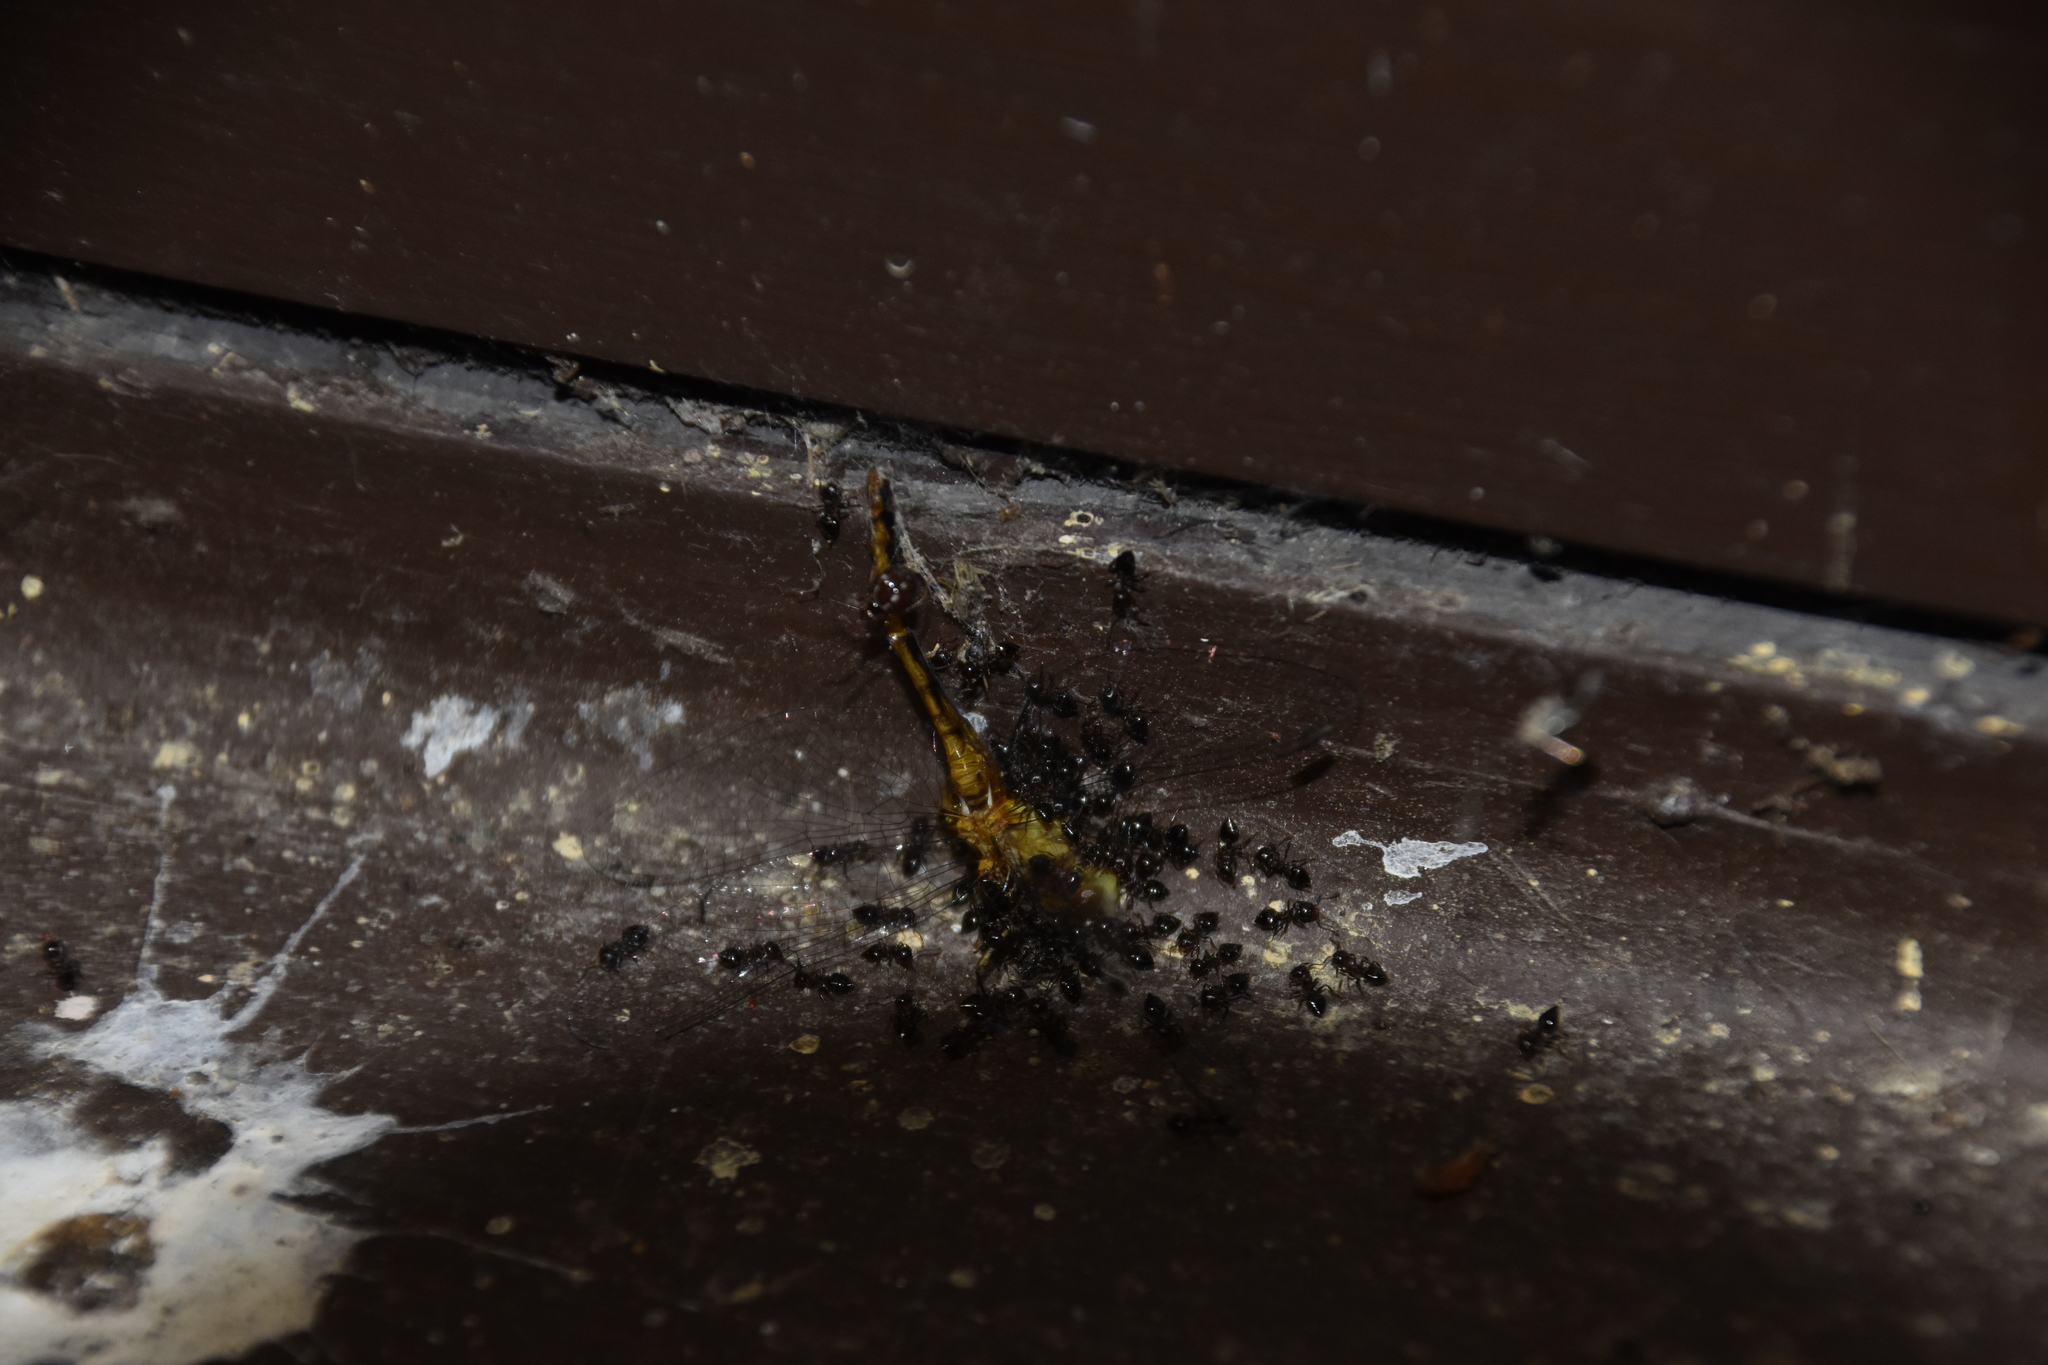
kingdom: Animalia
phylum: Arthropoda
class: Insecta
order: Hymenoptera
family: Formicidae
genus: Crematogaster
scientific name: Crematogaster
